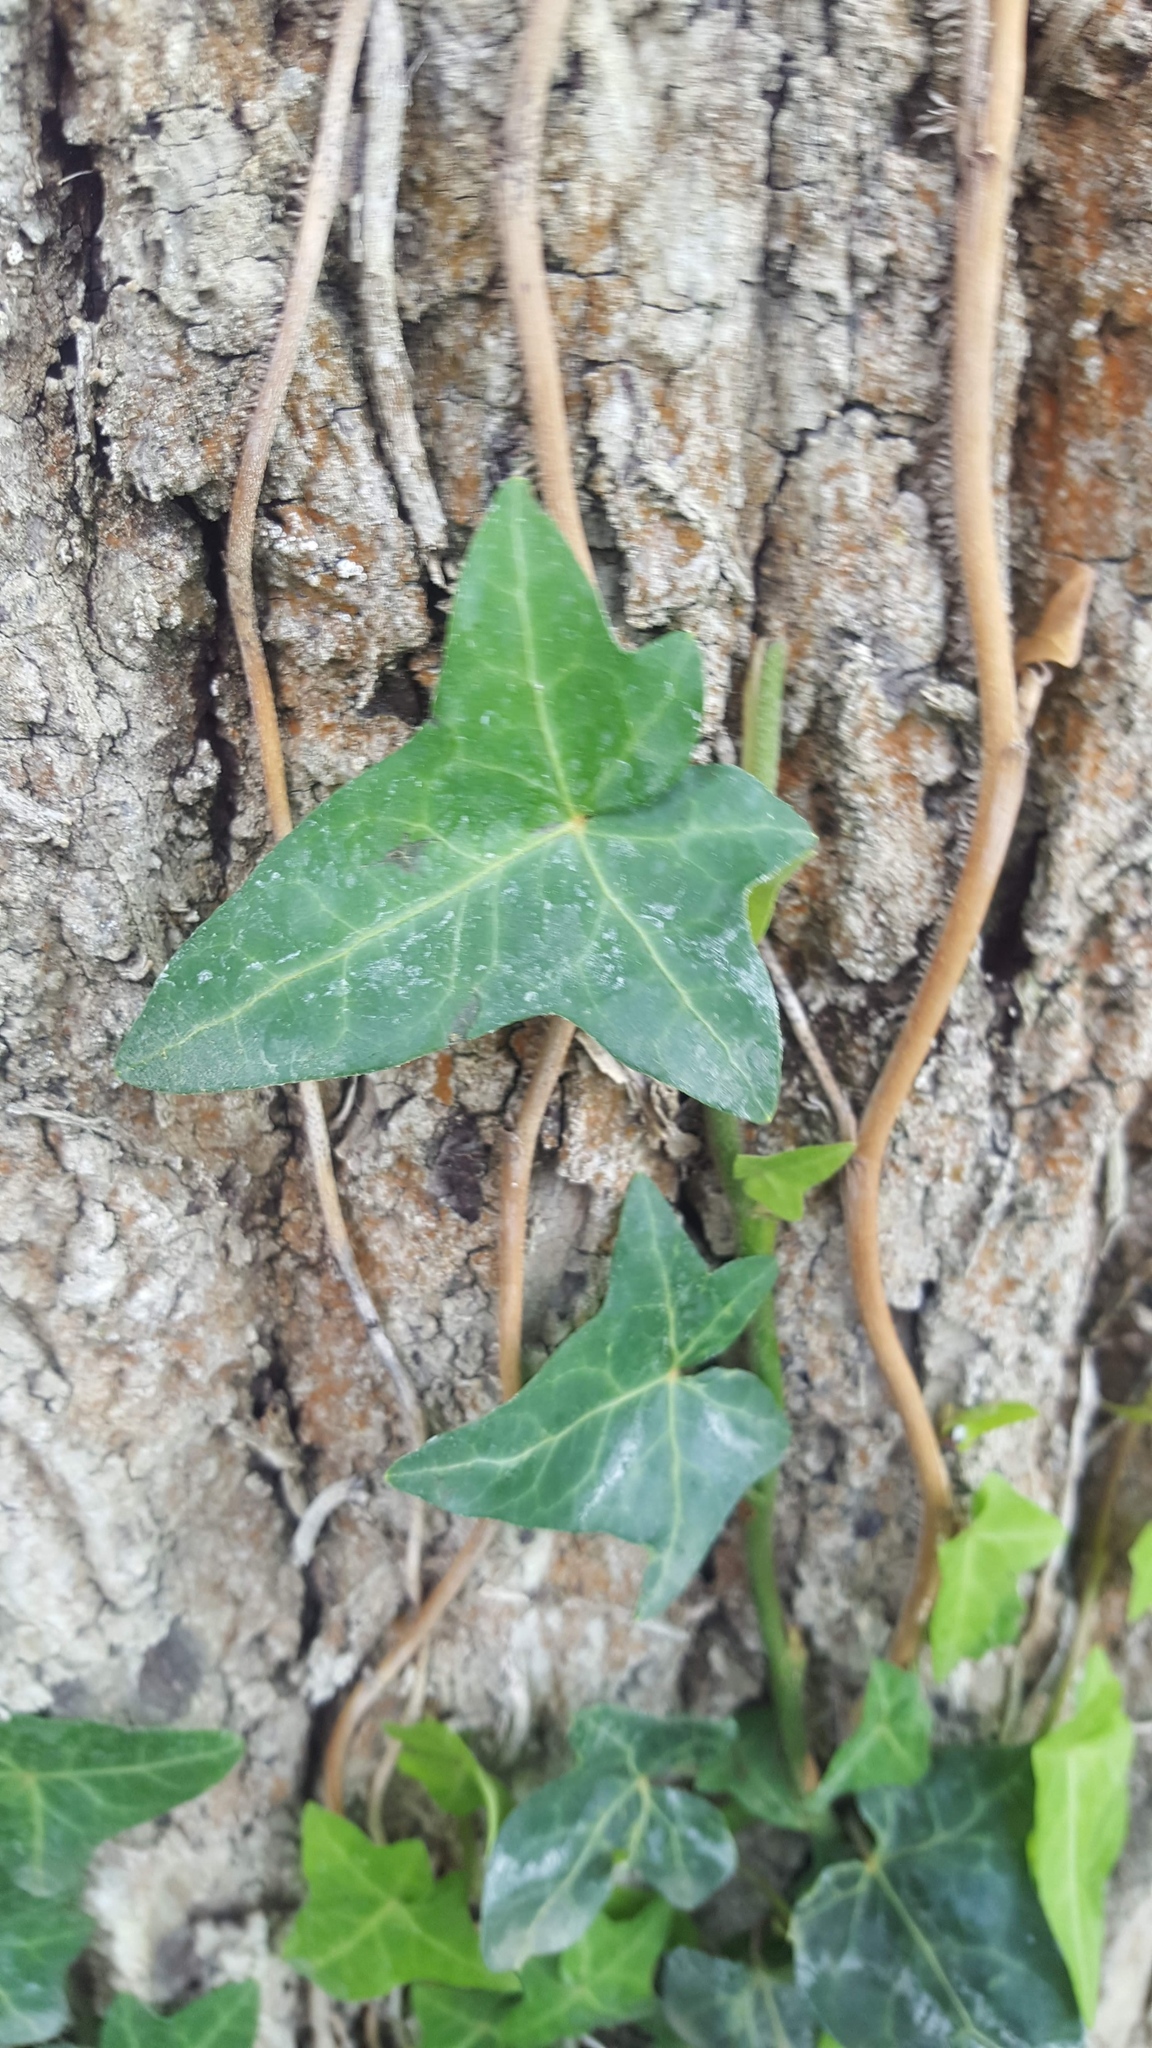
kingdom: Plantae
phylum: Tracheophyta
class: Magnoliopsida
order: Apiales
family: Araliaceae
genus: Hedera
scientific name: Hedera helix
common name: Ivy
